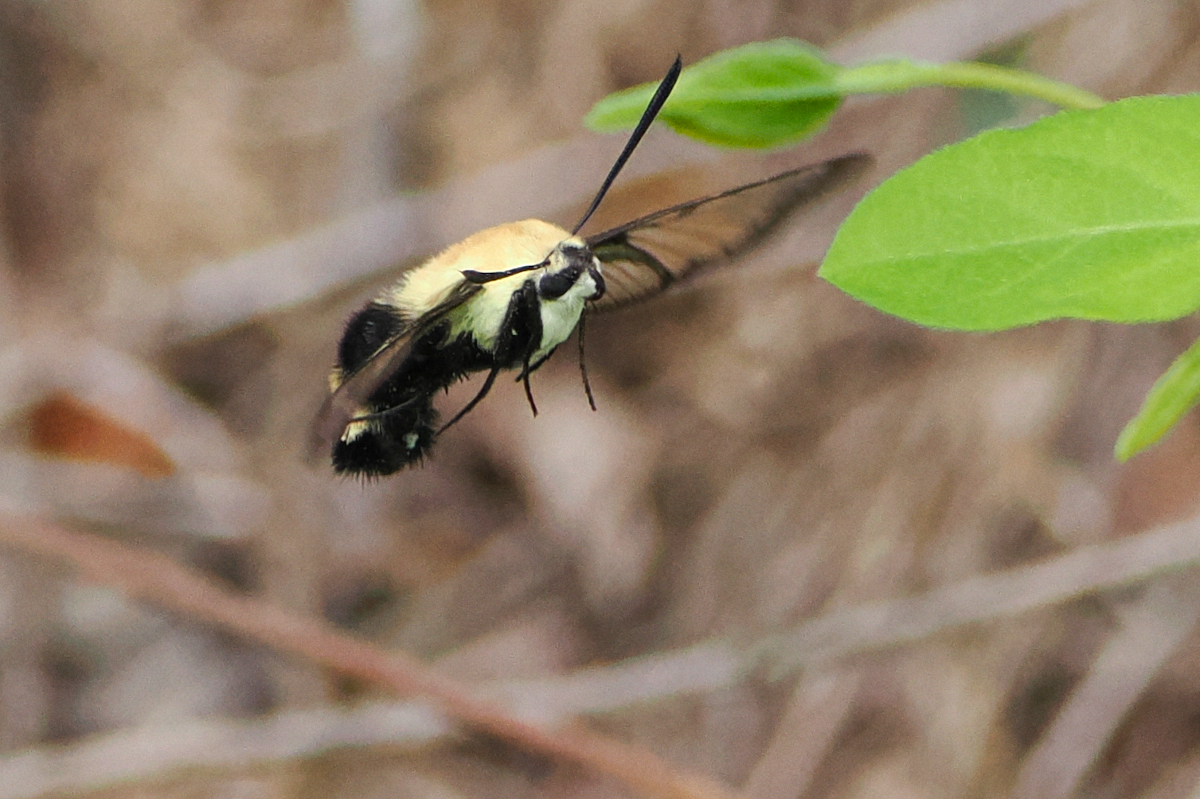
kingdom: Animalia
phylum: Arthropoda
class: Insecta
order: Lepidoptera
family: Sphingidae
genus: Hemaris
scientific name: Hemaris diffinis
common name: Bumblebee moth
